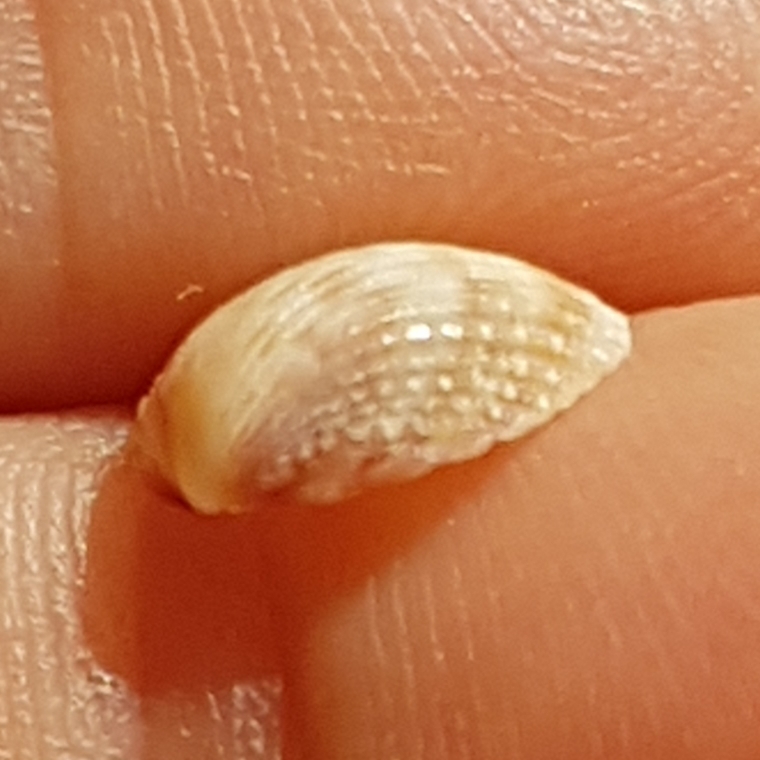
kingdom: Animalia
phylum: Mollusca
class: Bivalvia
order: Cardiida
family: Cardiidae
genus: Papillicardium
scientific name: Papillicardium papillosum
